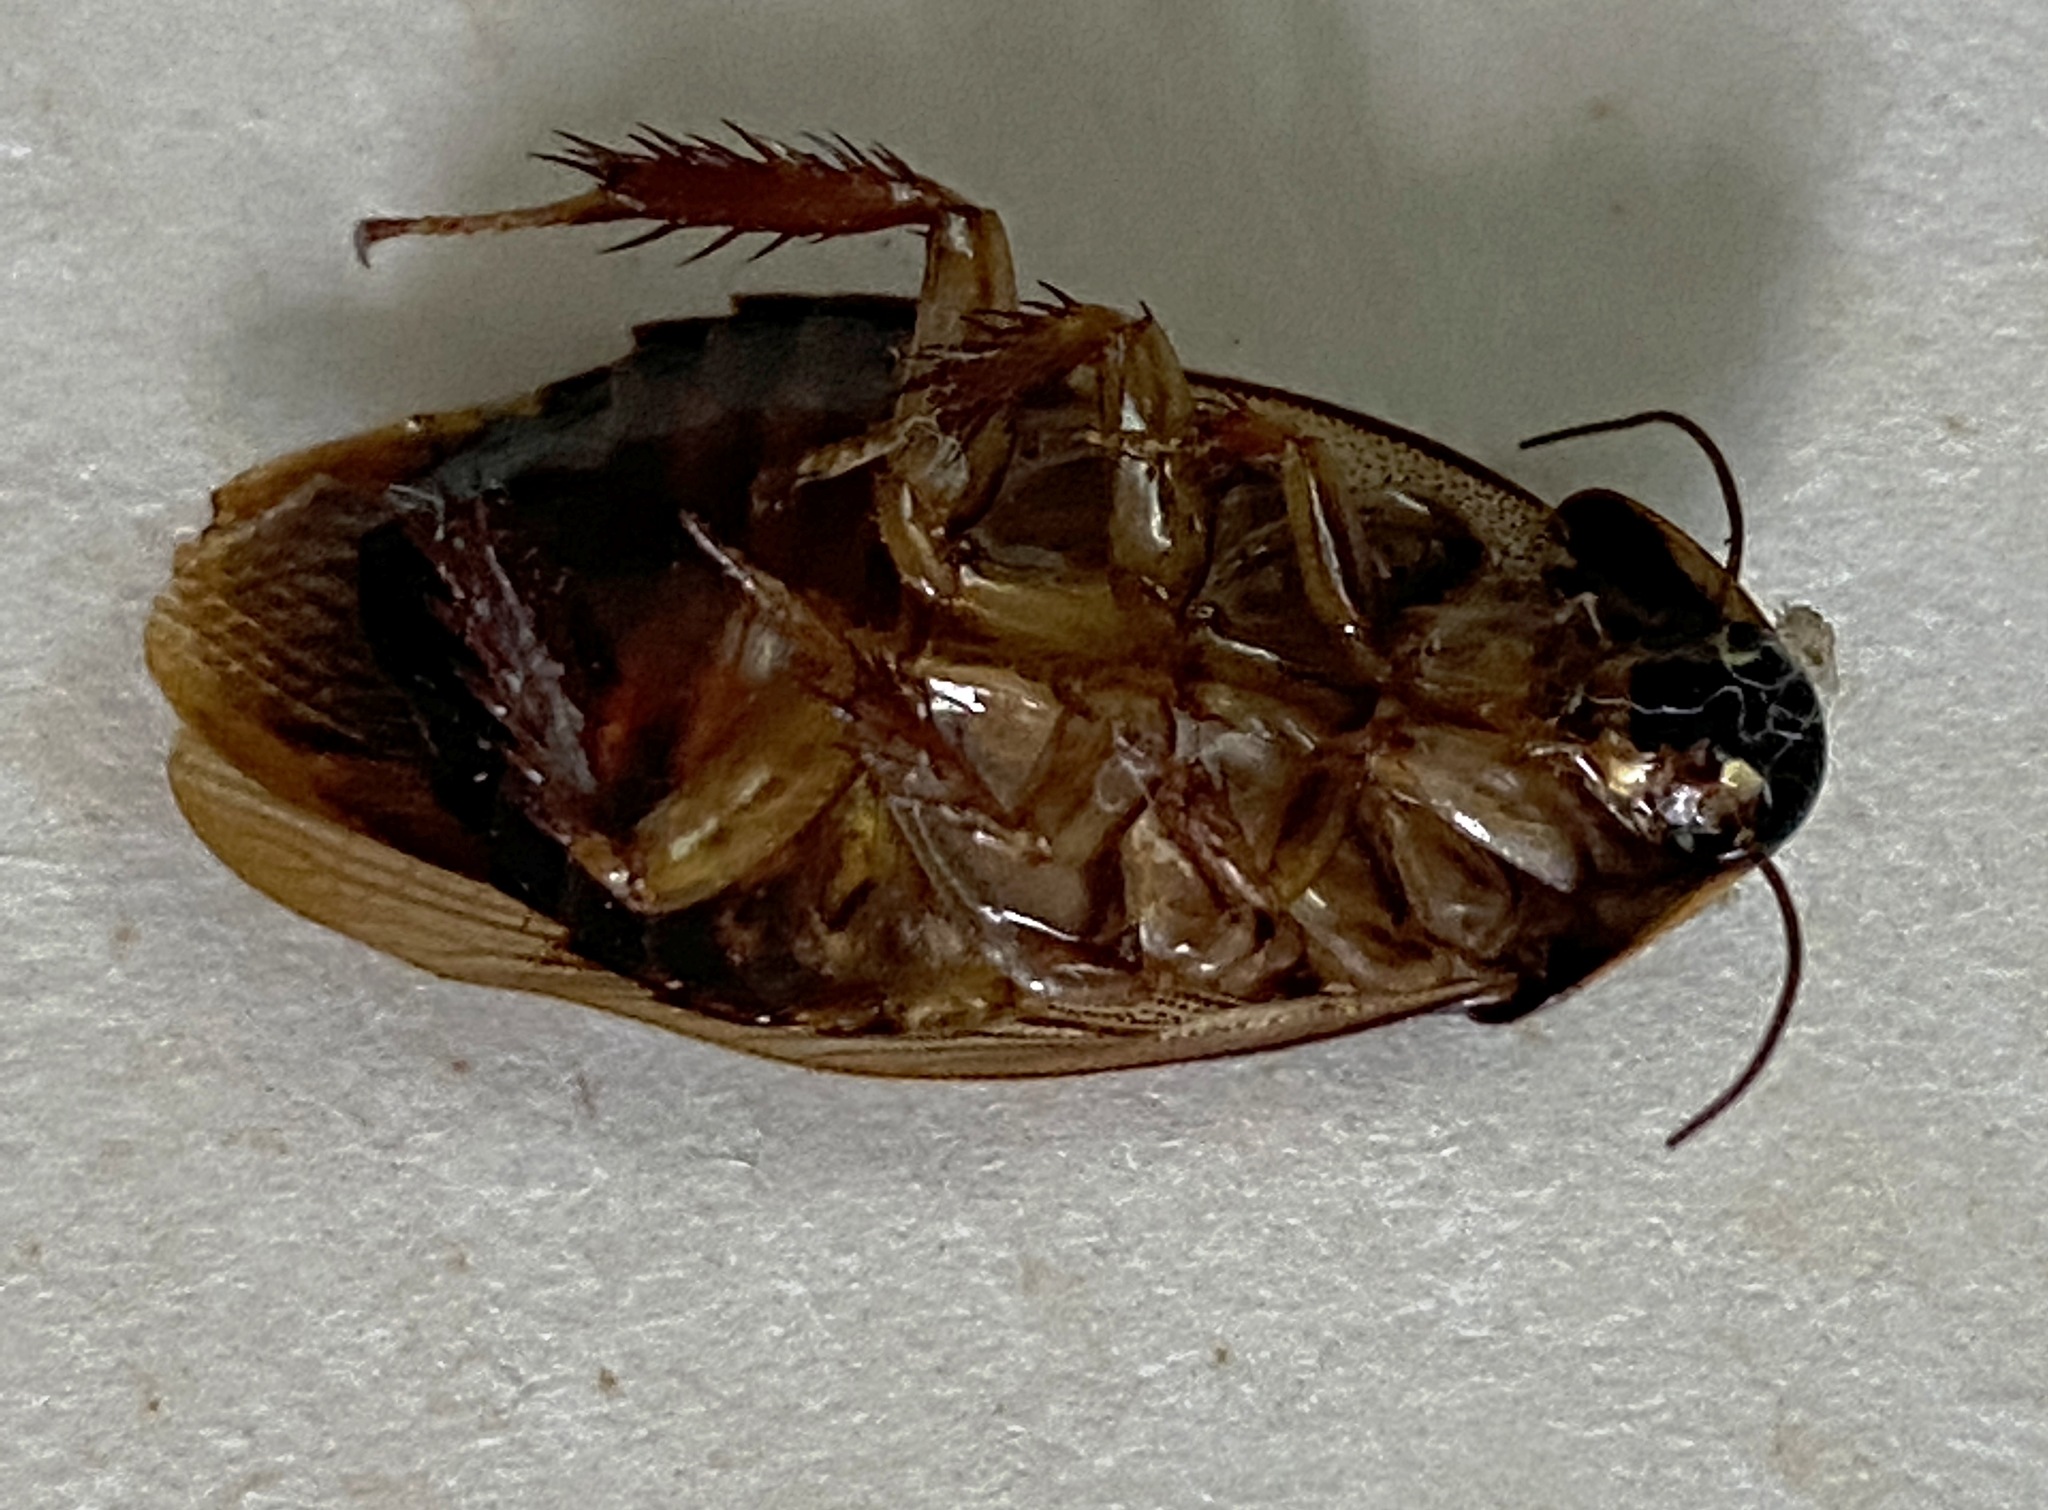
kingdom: Animalia
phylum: Arthropoda
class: Insecta
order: Blattodea
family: Blaberidae
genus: Pycnoscelus
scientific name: Pycnoscelus surinamensis
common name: Surinam cockroach
